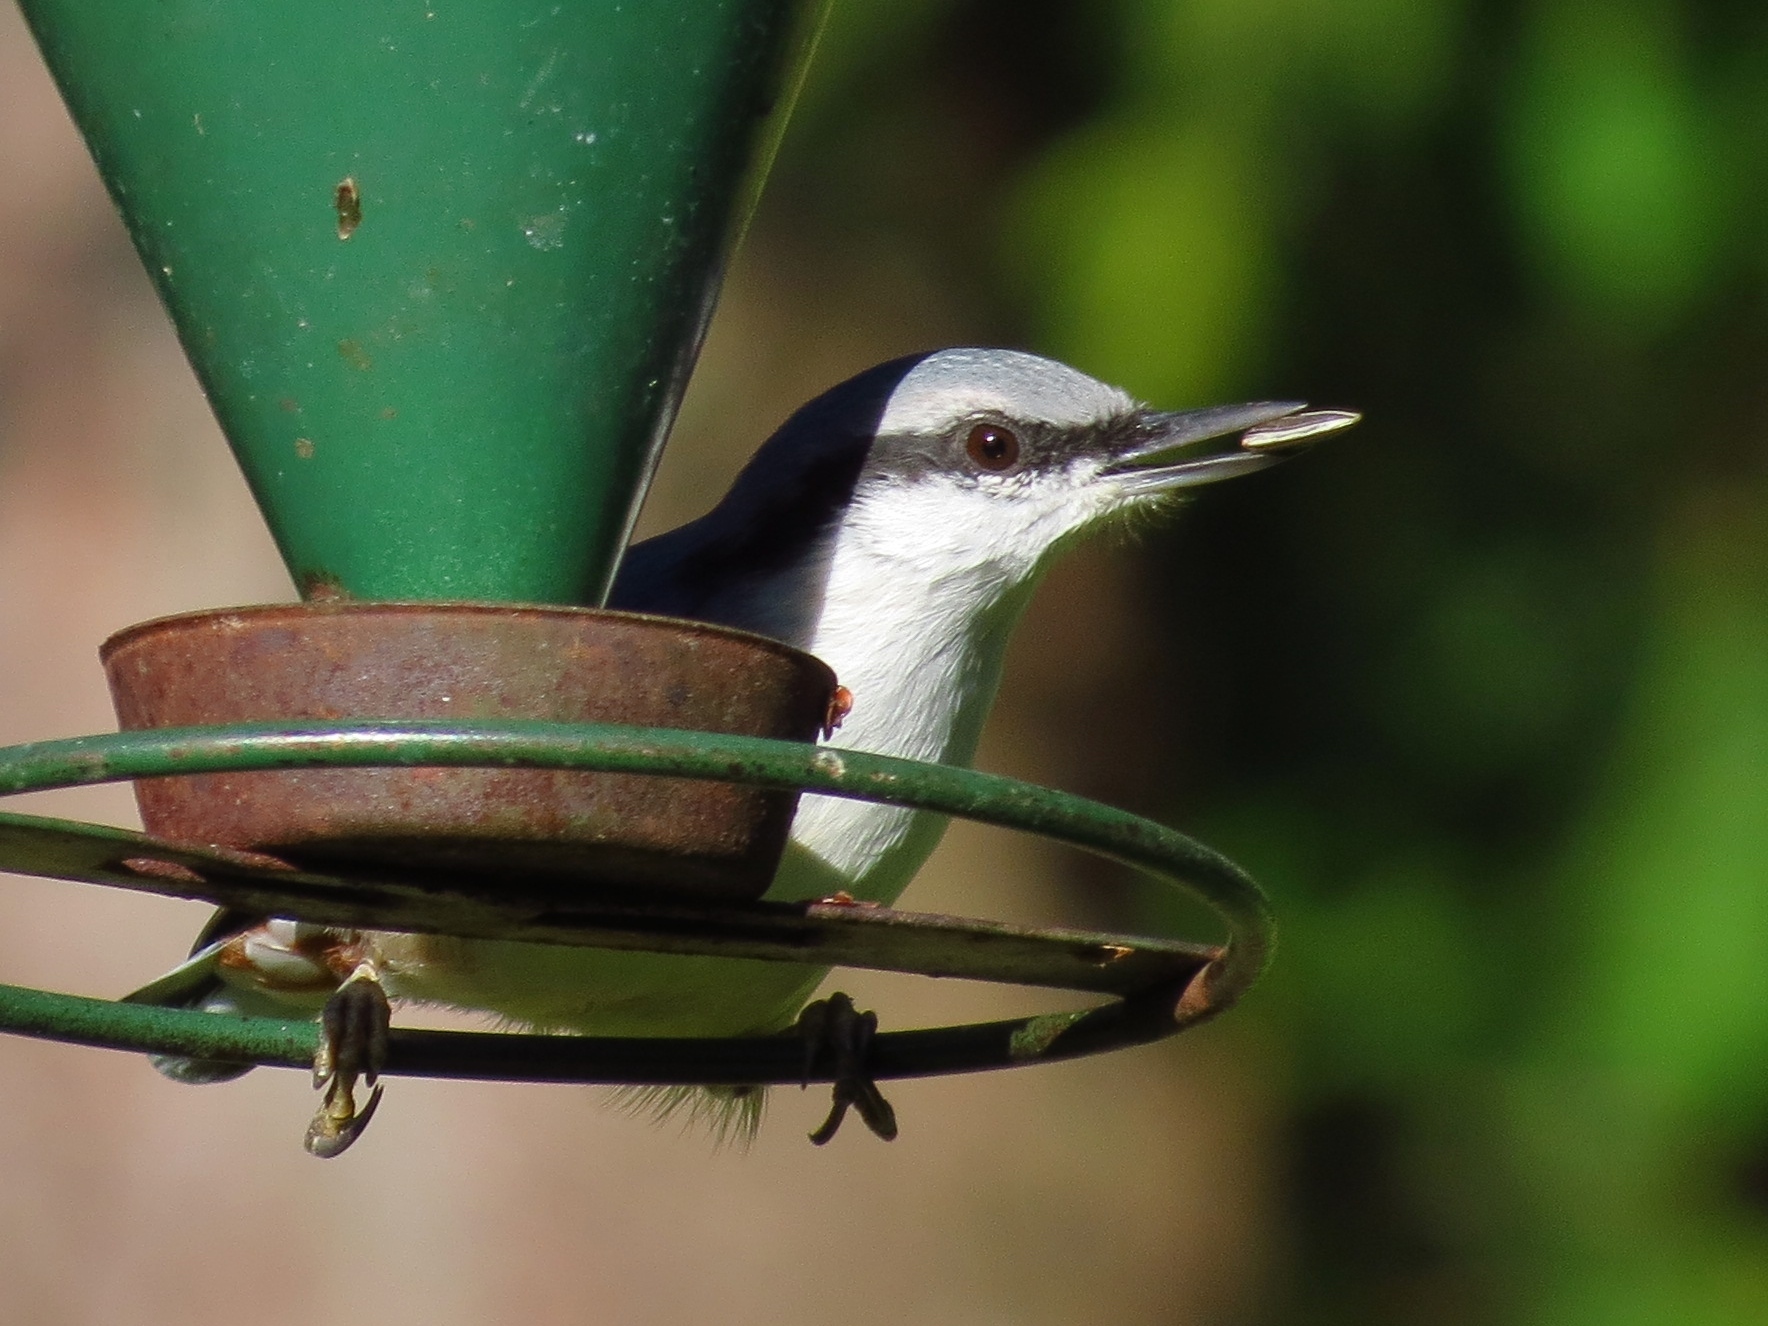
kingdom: Animalia
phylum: Chordata
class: Aves
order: Passeriformes
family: Sittidae
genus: Sitta
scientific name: Sitta europaea
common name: Eurasian nuthatch
